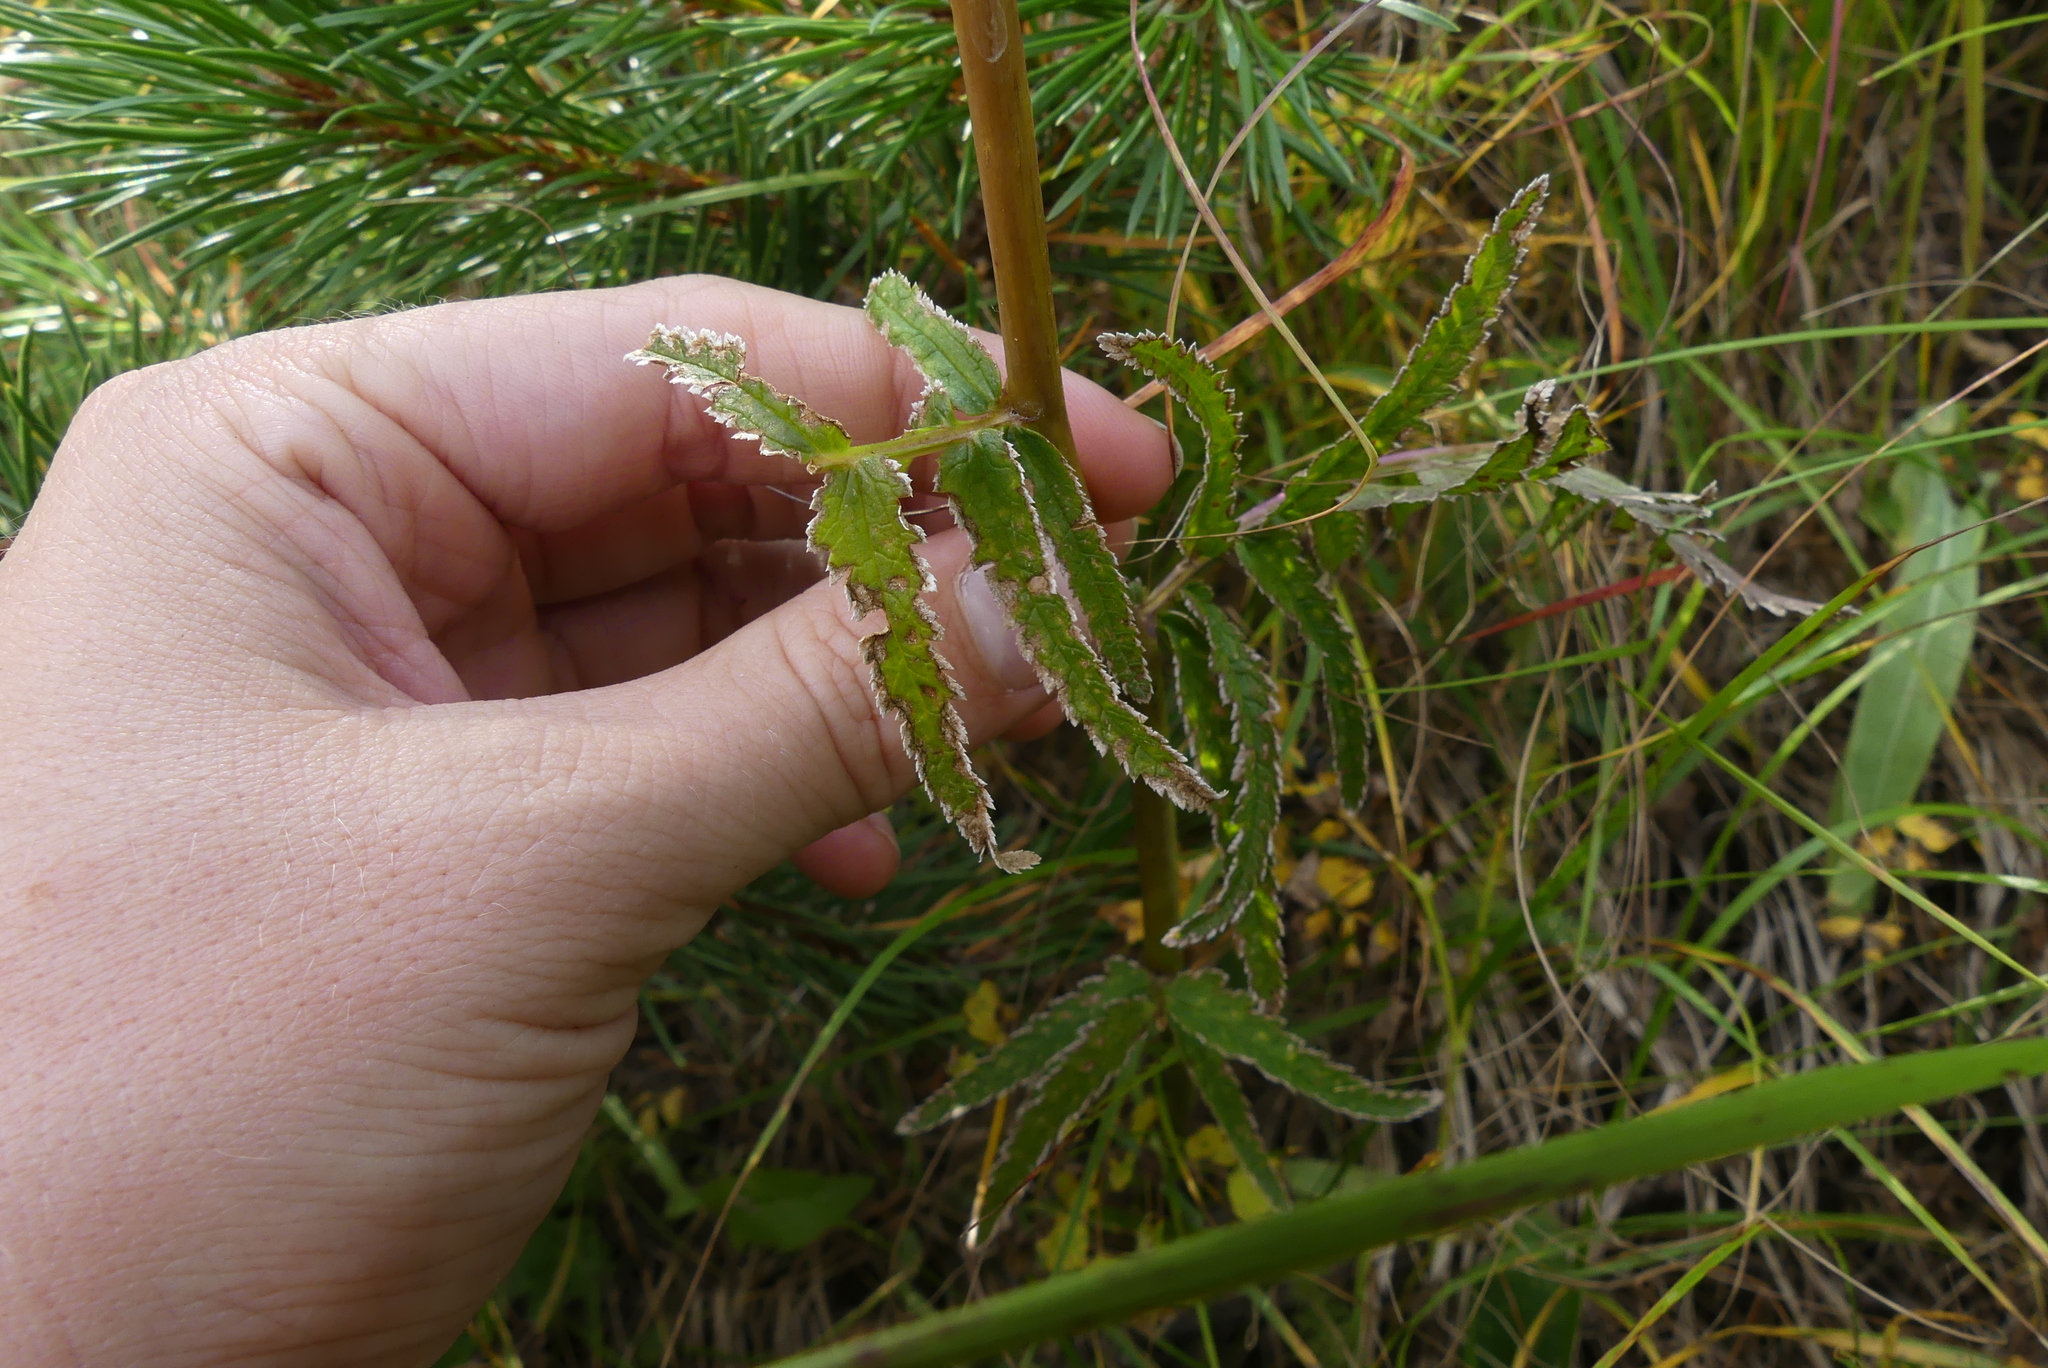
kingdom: Plantae
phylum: Tracheophyta
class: Magnoliopsida
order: Lamiales
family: Orobanchaceae
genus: Pedicularis
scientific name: Pedicularis bracteosa
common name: Bracted lousewort
